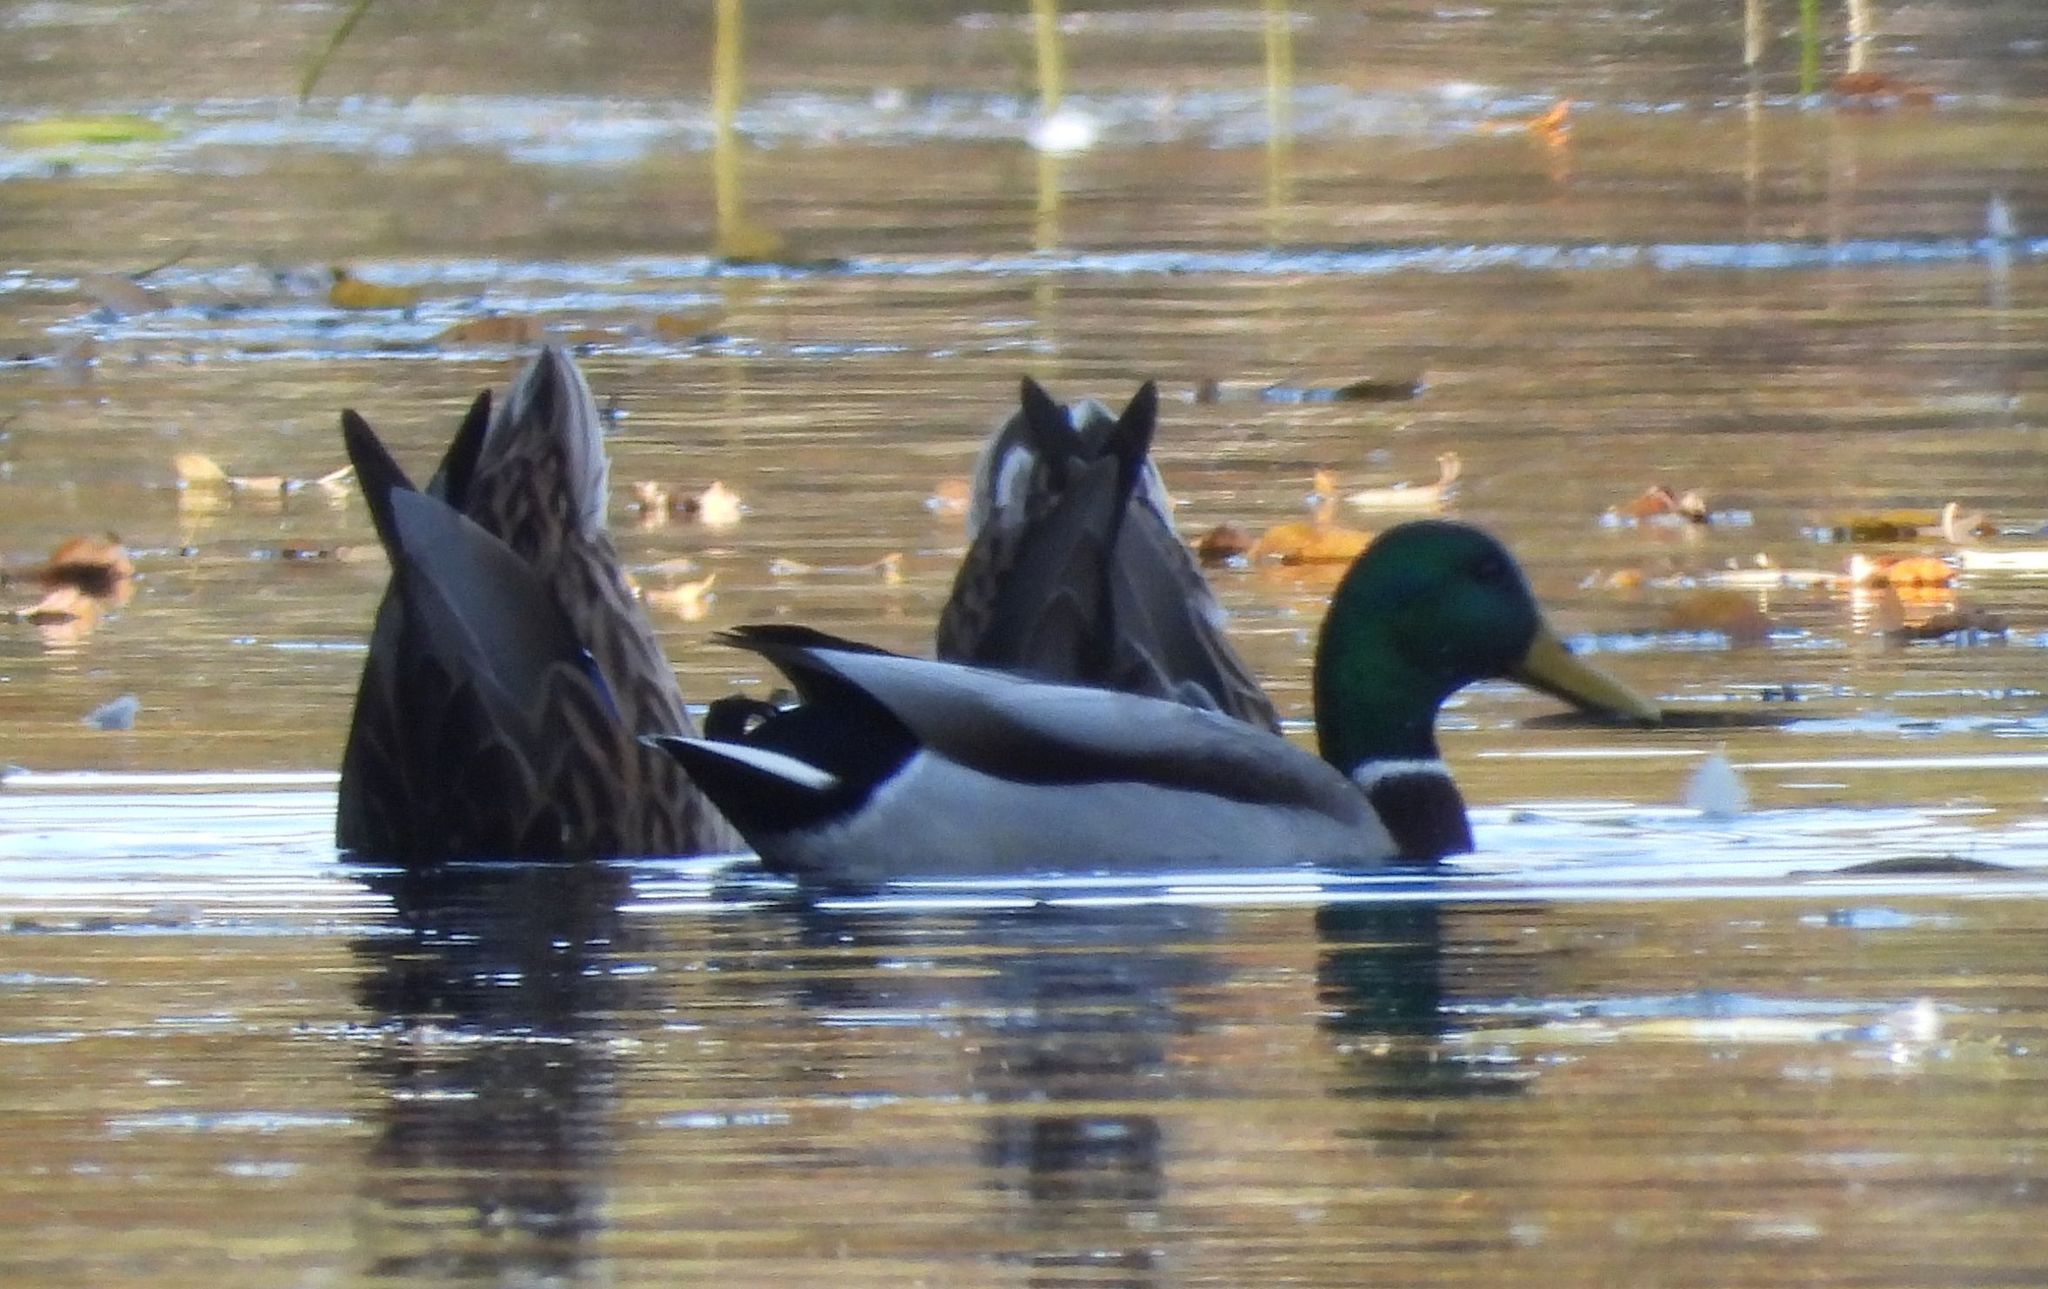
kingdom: Animalia
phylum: Chordata
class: Aves
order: Anseriformes
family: Anatidae
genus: Anas
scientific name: Anas platyrhynchos
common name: Mallard
